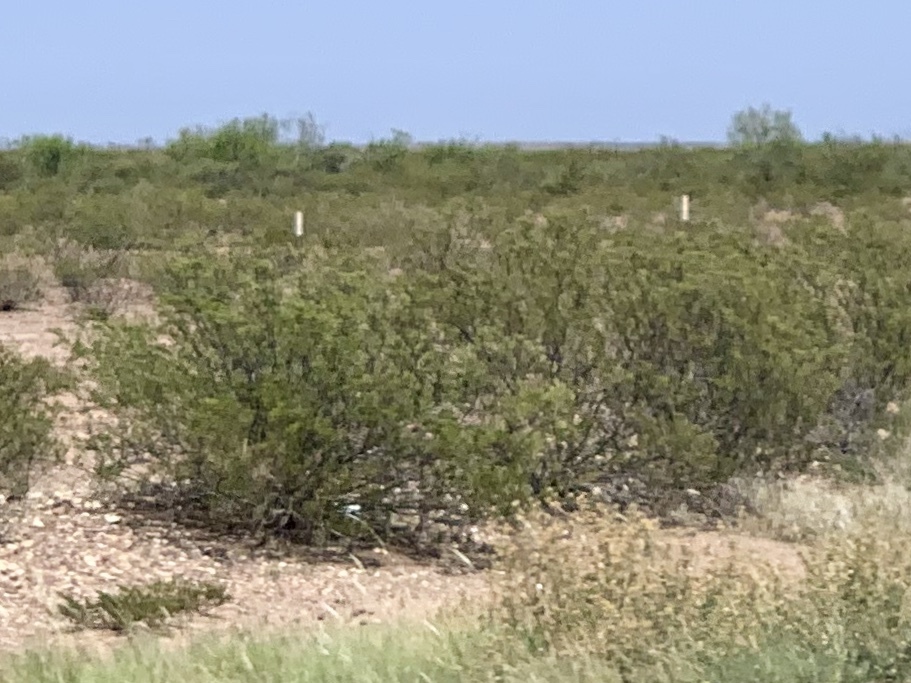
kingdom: Plantae
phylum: Tracheophyta
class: Magnoliopsida
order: Zygophyllales
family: Zygophyllaceae
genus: Larrea
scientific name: Larrea tridentata
